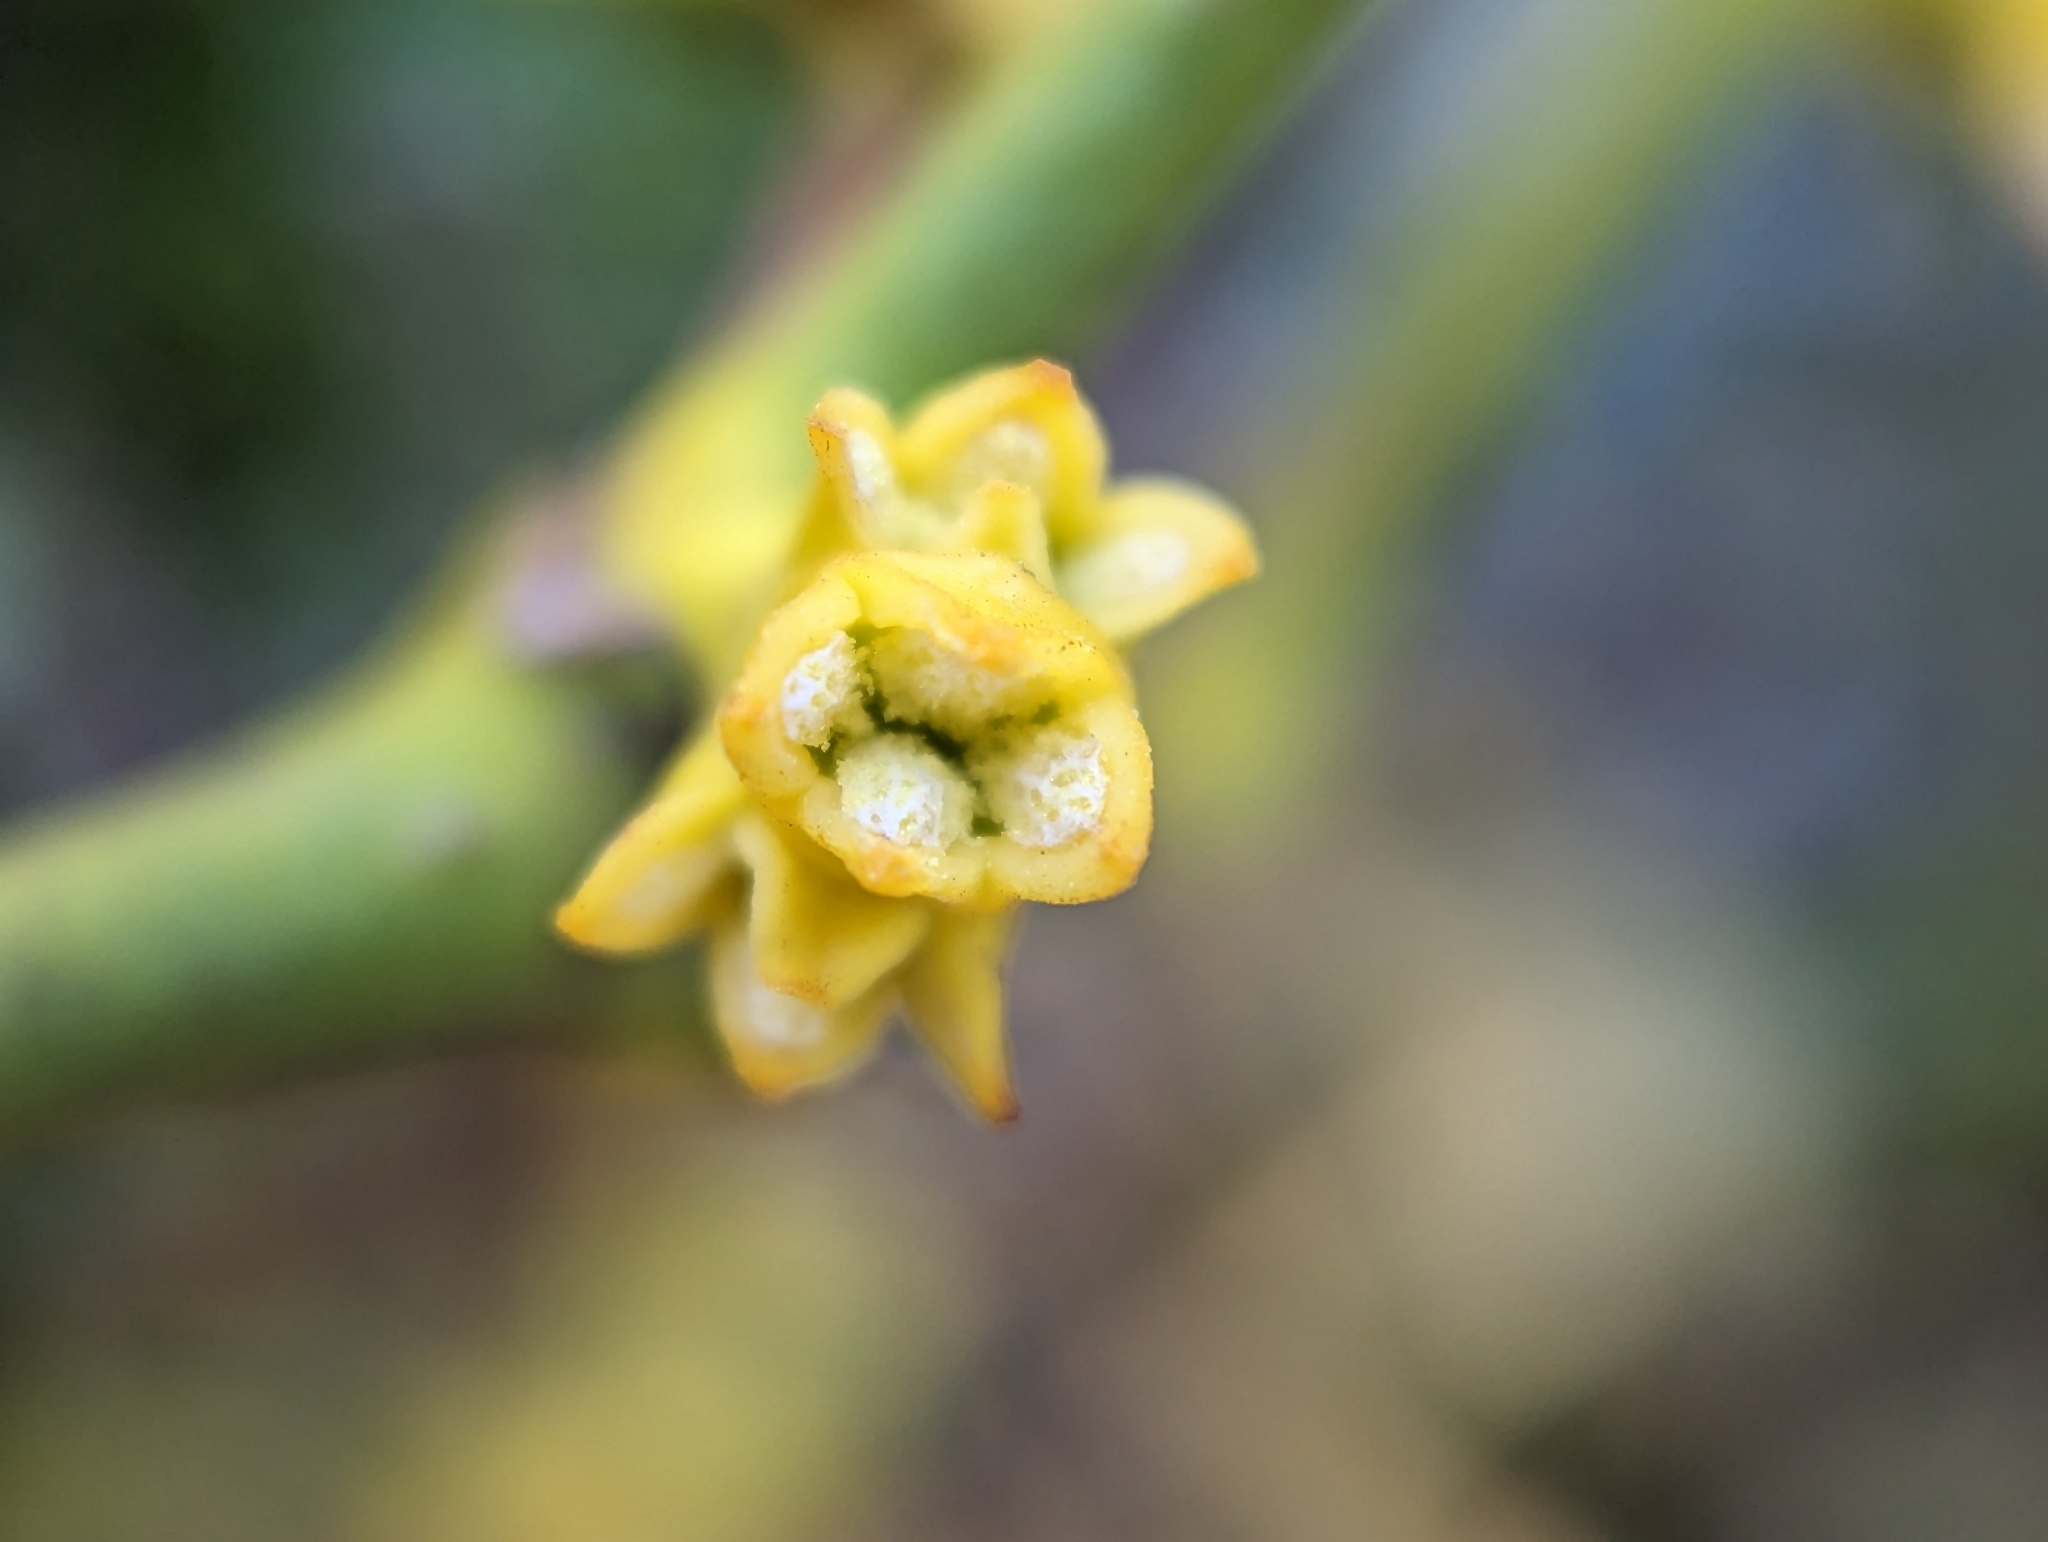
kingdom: Plantae
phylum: Tracheophyta
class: Magnoliopsida
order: Santalales
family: Viscaceae
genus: Viscum
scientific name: Viscum album
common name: Mistletoe
